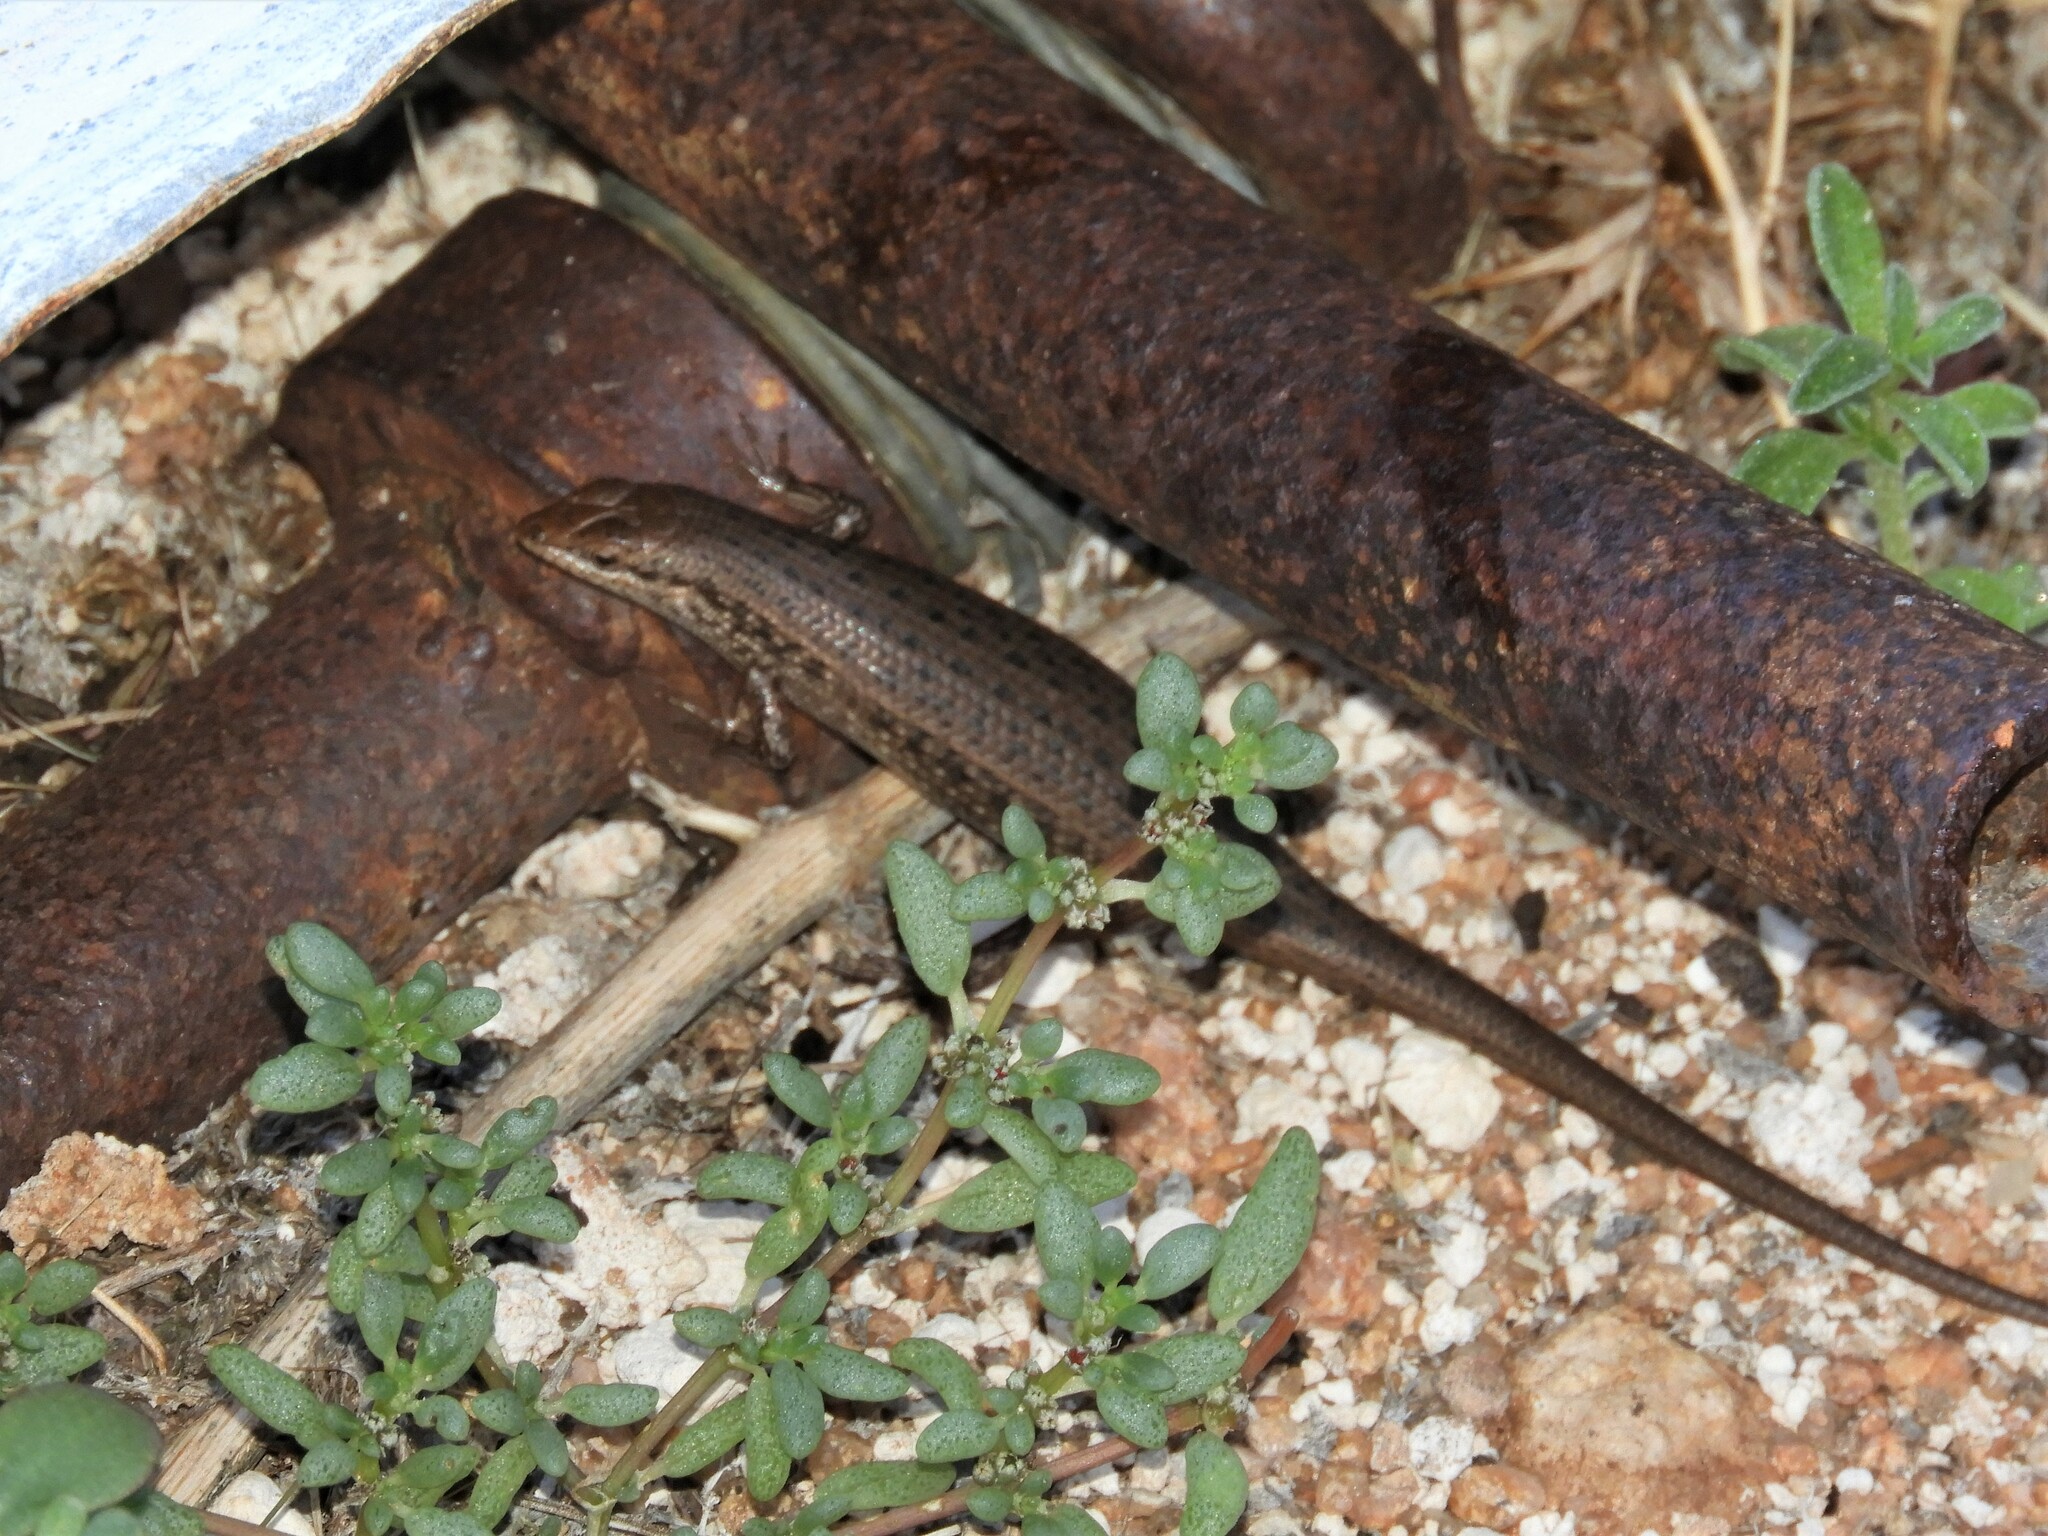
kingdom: Animalia
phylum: Chordata
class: Squamata
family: Scincidae
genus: Trachylepis
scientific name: Trachylepis variegata
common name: Variegated skink
